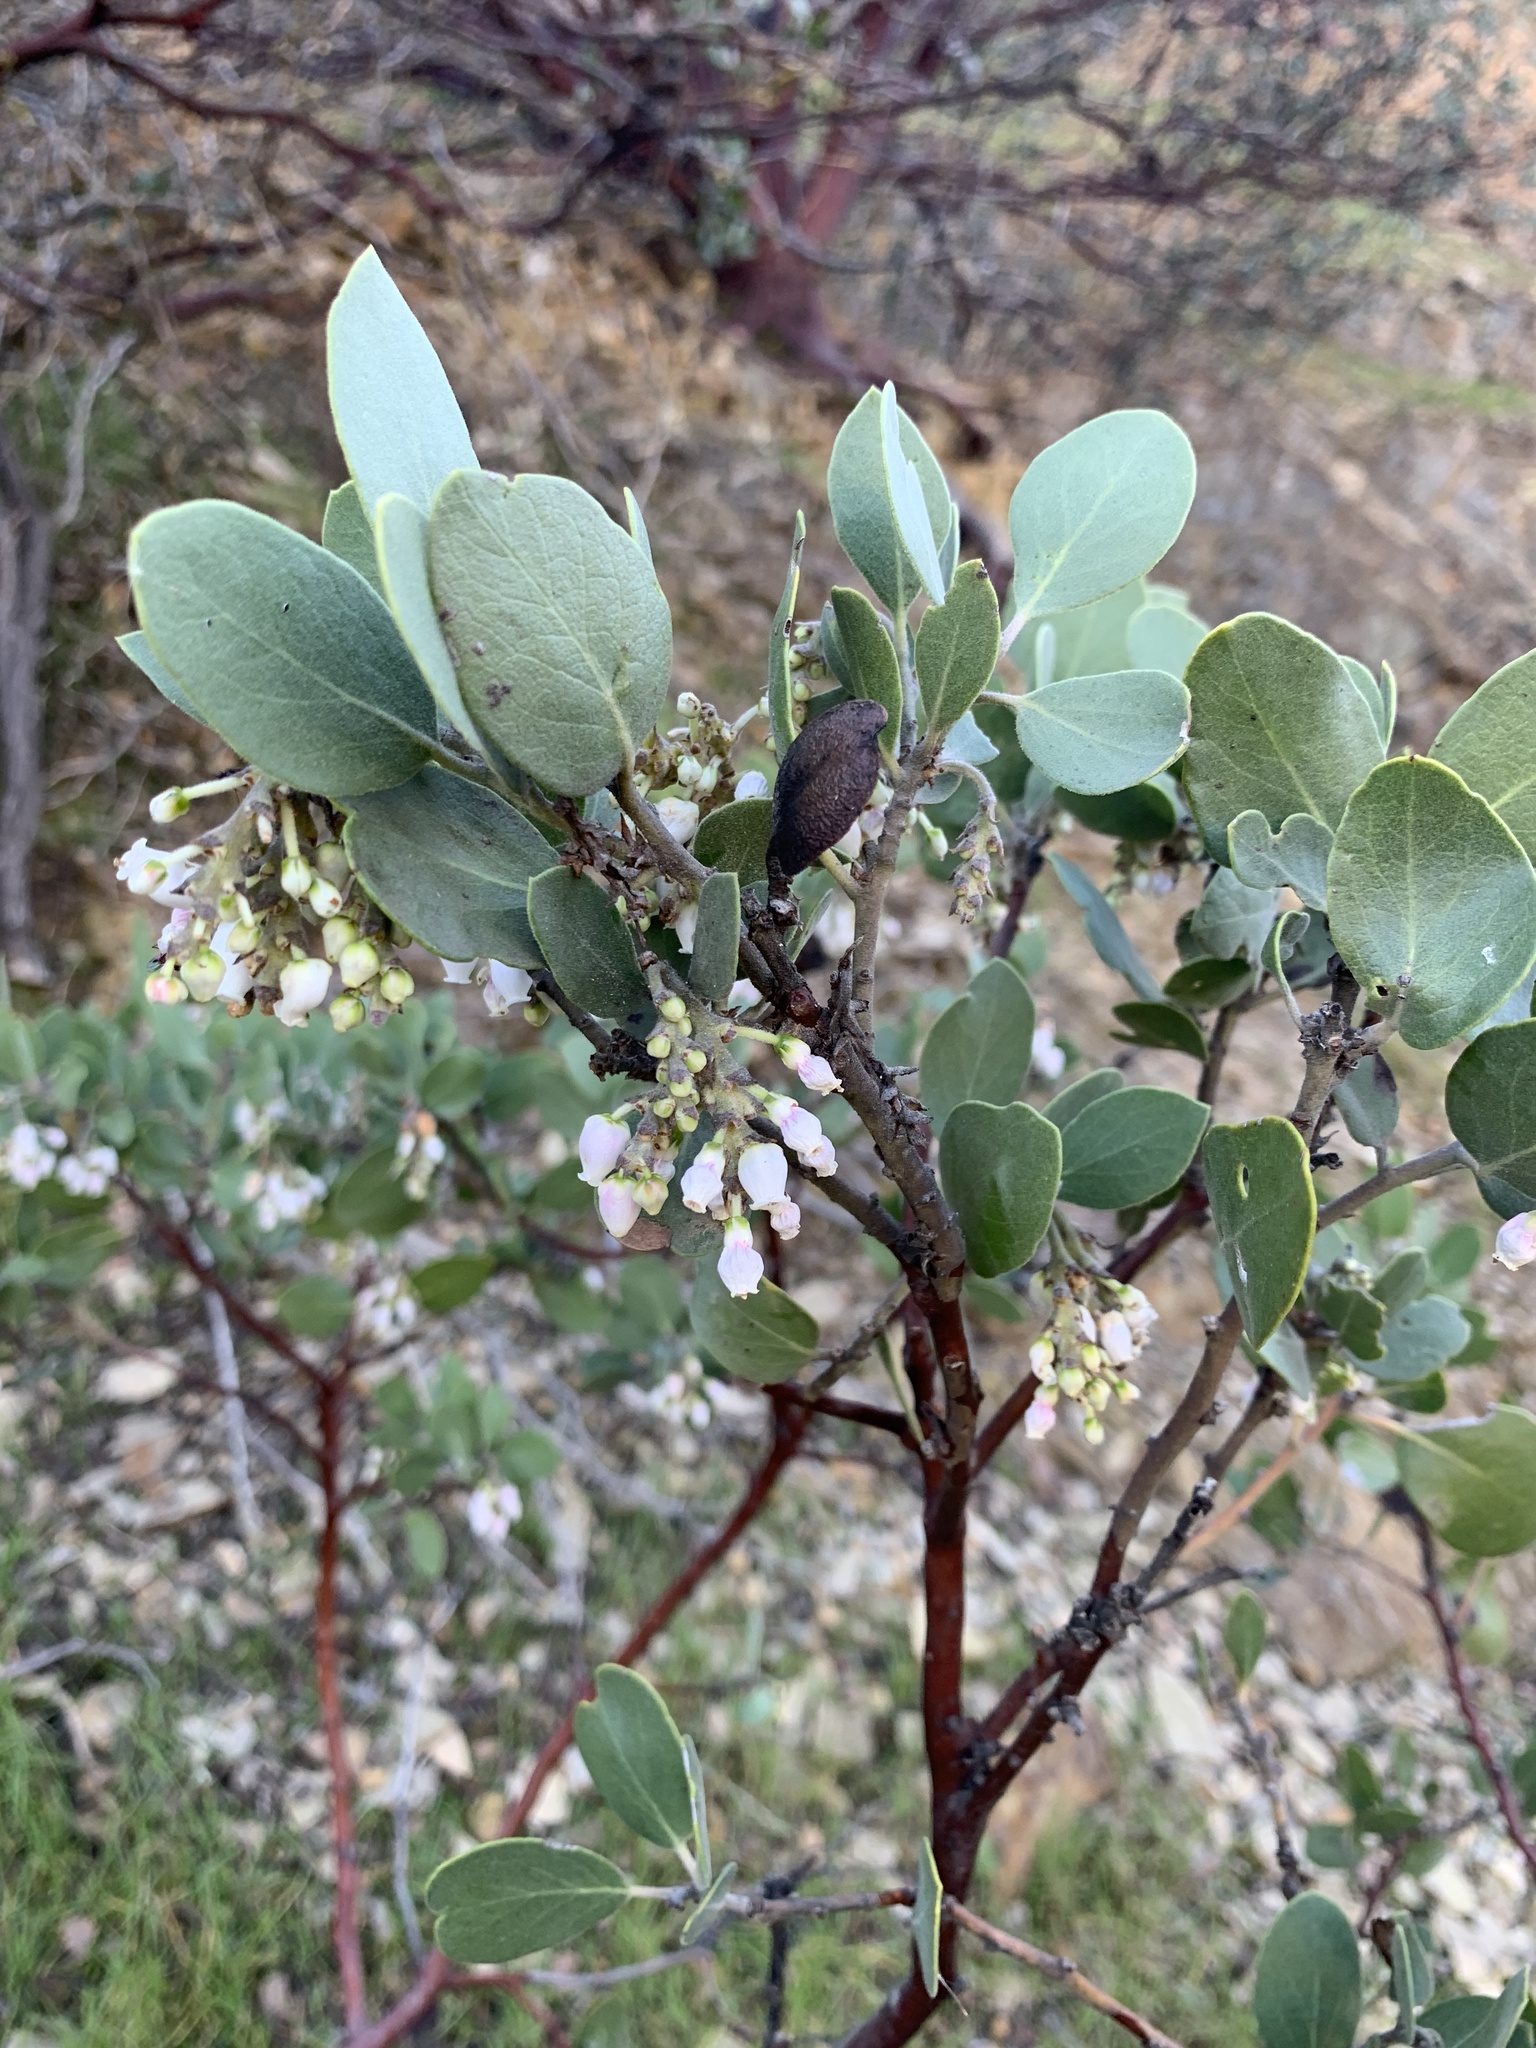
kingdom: Plantae
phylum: Tracheophyta
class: Magnoliopsida
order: Ericales
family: Ericaceae
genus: Arctostaphylos
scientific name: Arctostaphylos manzanita
